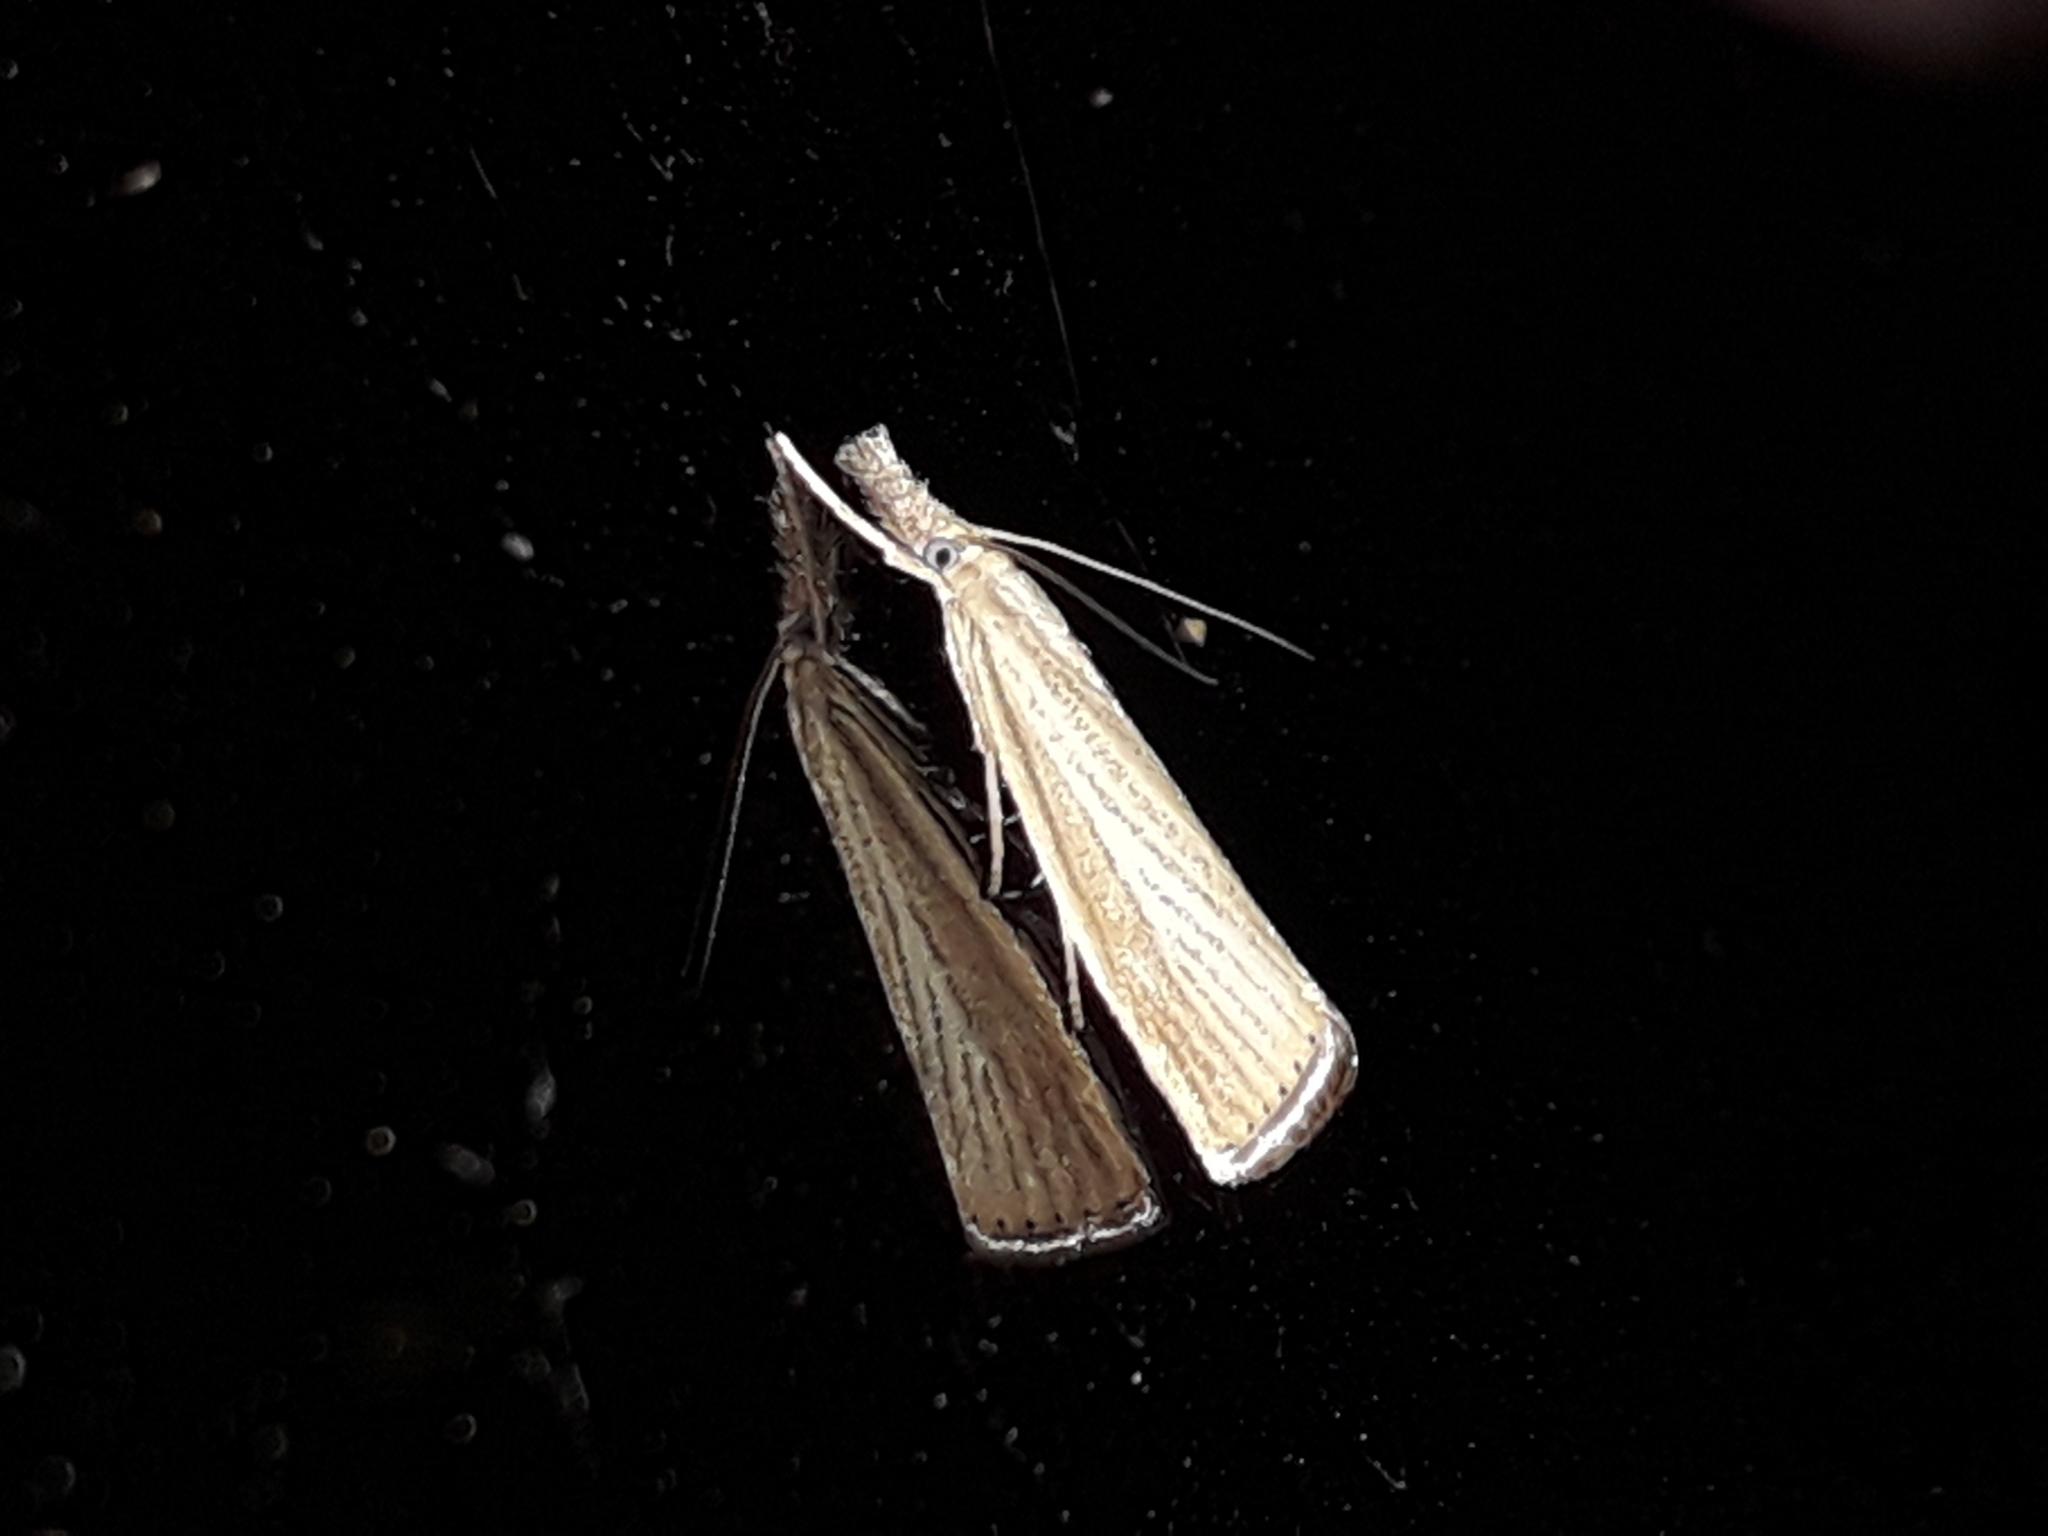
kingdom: Animalia
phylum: Arthropoda
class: Insecta
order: Lepidoptera
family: Crambidae
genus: Agriphila
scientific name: Agriphila straminella
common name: Straw grass-veneer
